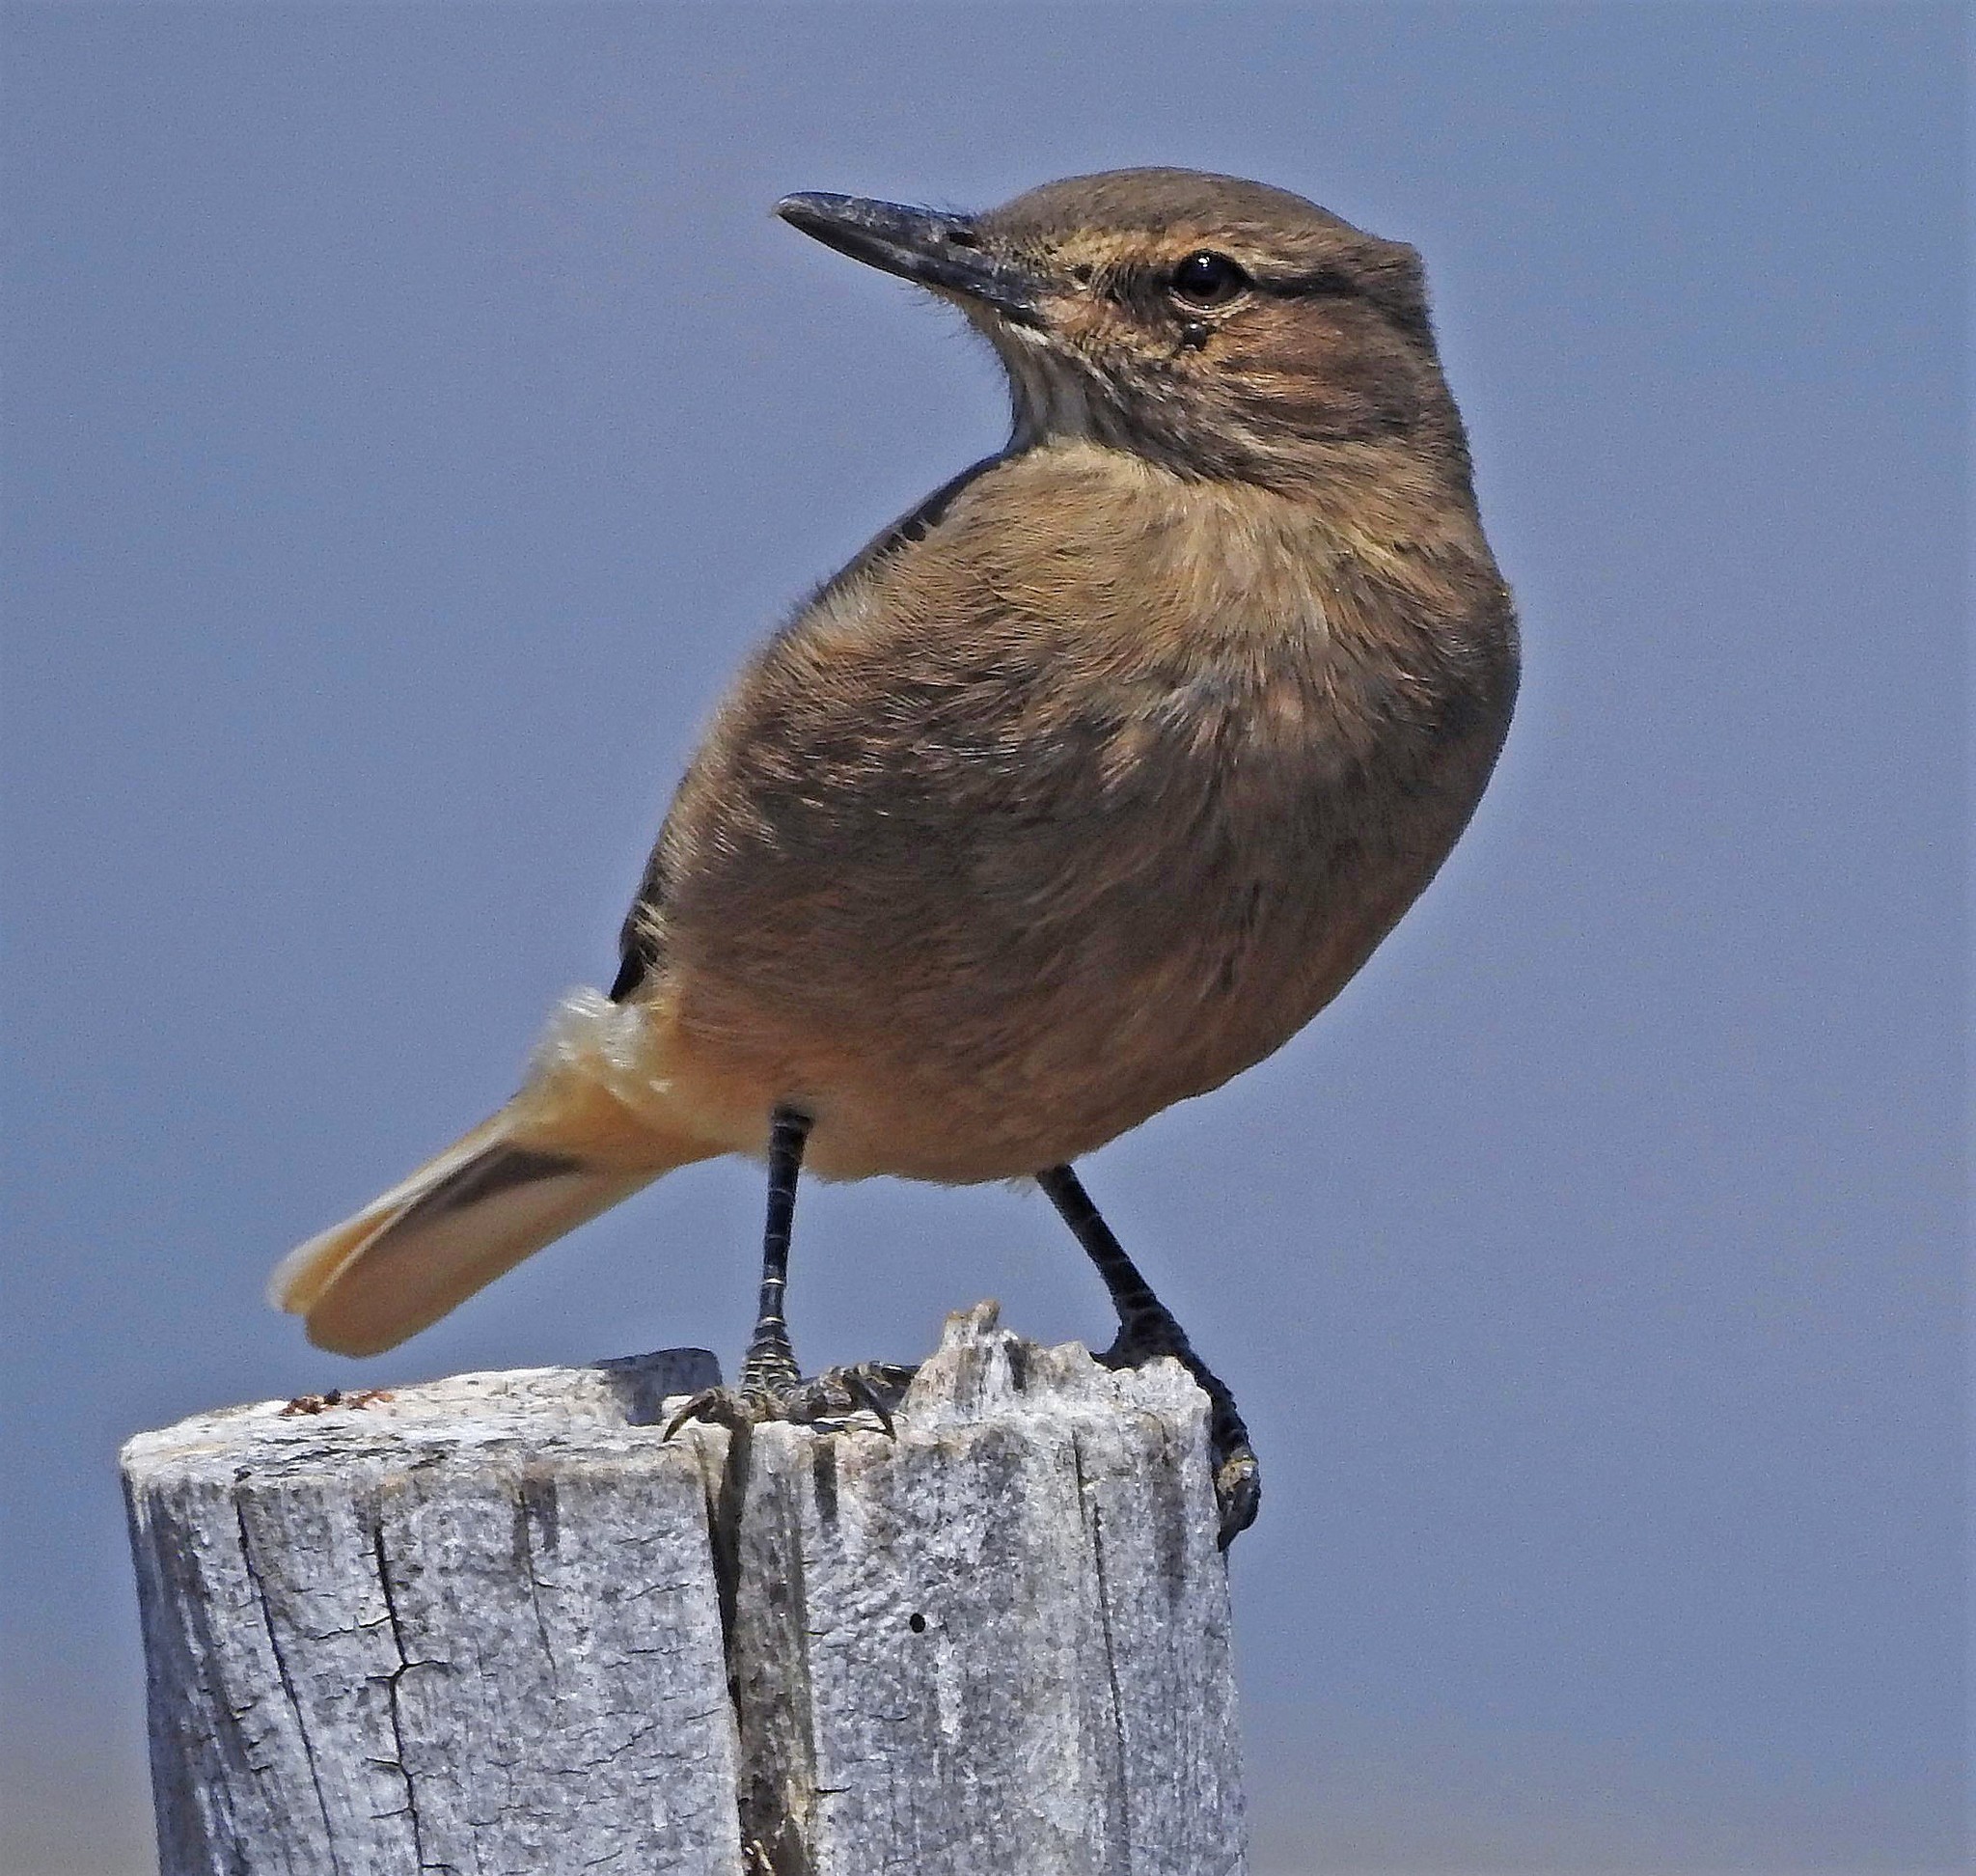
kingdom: Animalia
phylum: Chordata
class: Aves
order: Passeriformes
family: Tyrannidae
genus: Agriornis
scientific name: Agriornis montanus
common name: Black-billed shrike-tyrant
